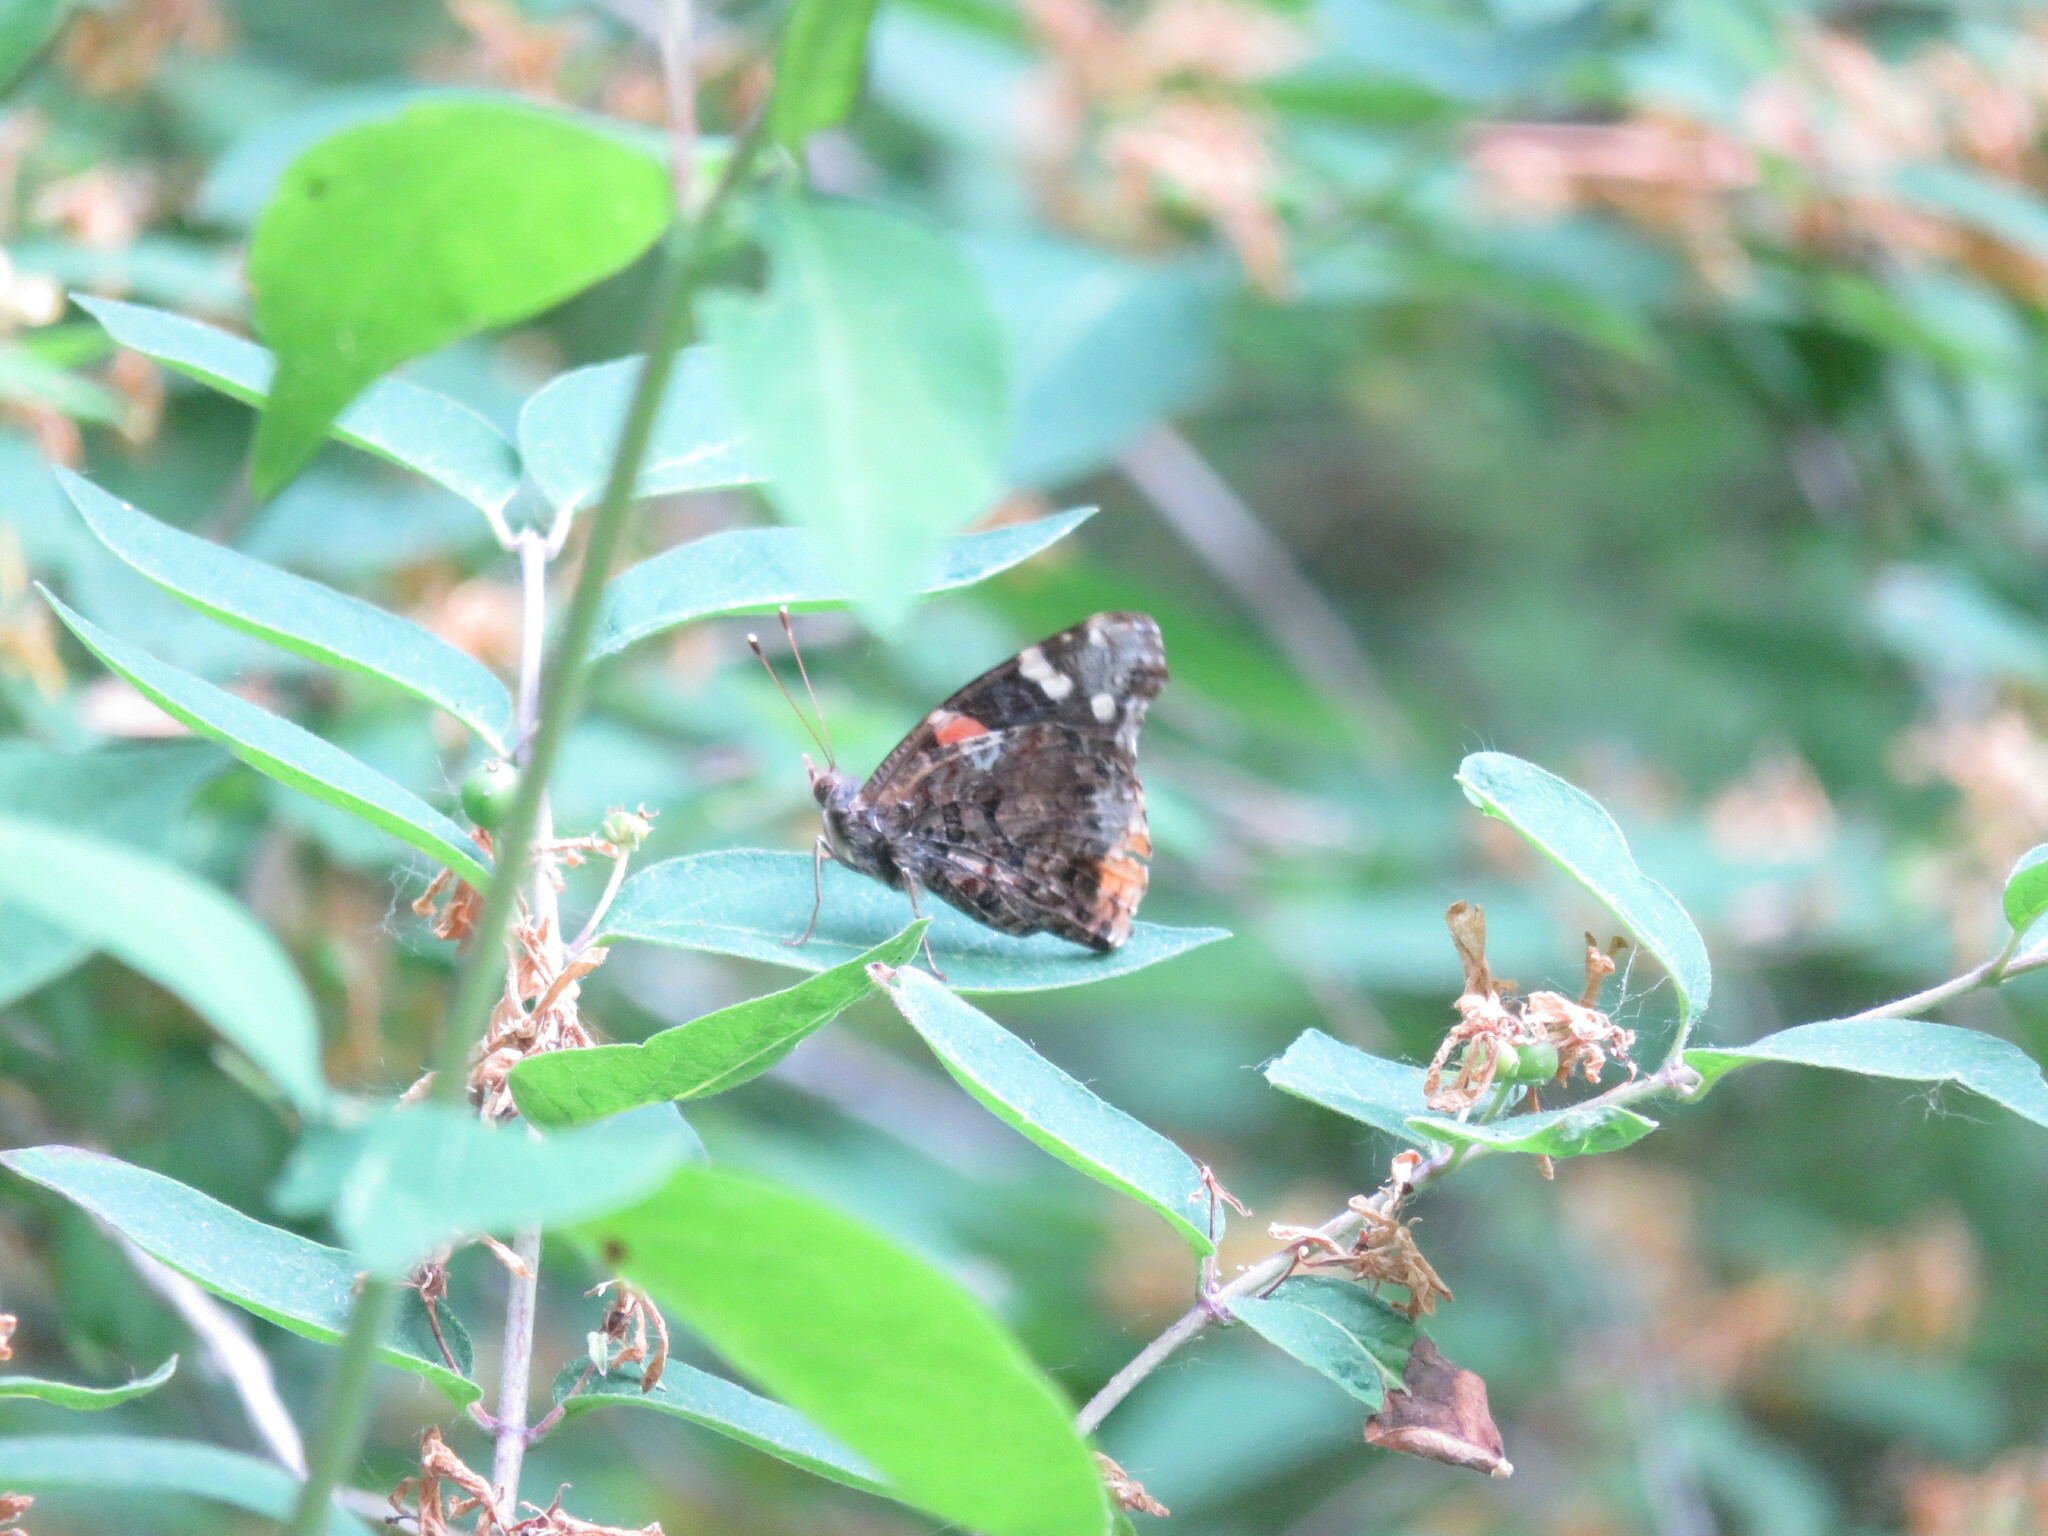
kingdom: Animalia
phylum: Arthropoda
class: Insecta
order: Lepidoptera
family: Nymphalidae
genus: Vanessa
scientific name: Vanessa atalanta
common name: Red admiral
